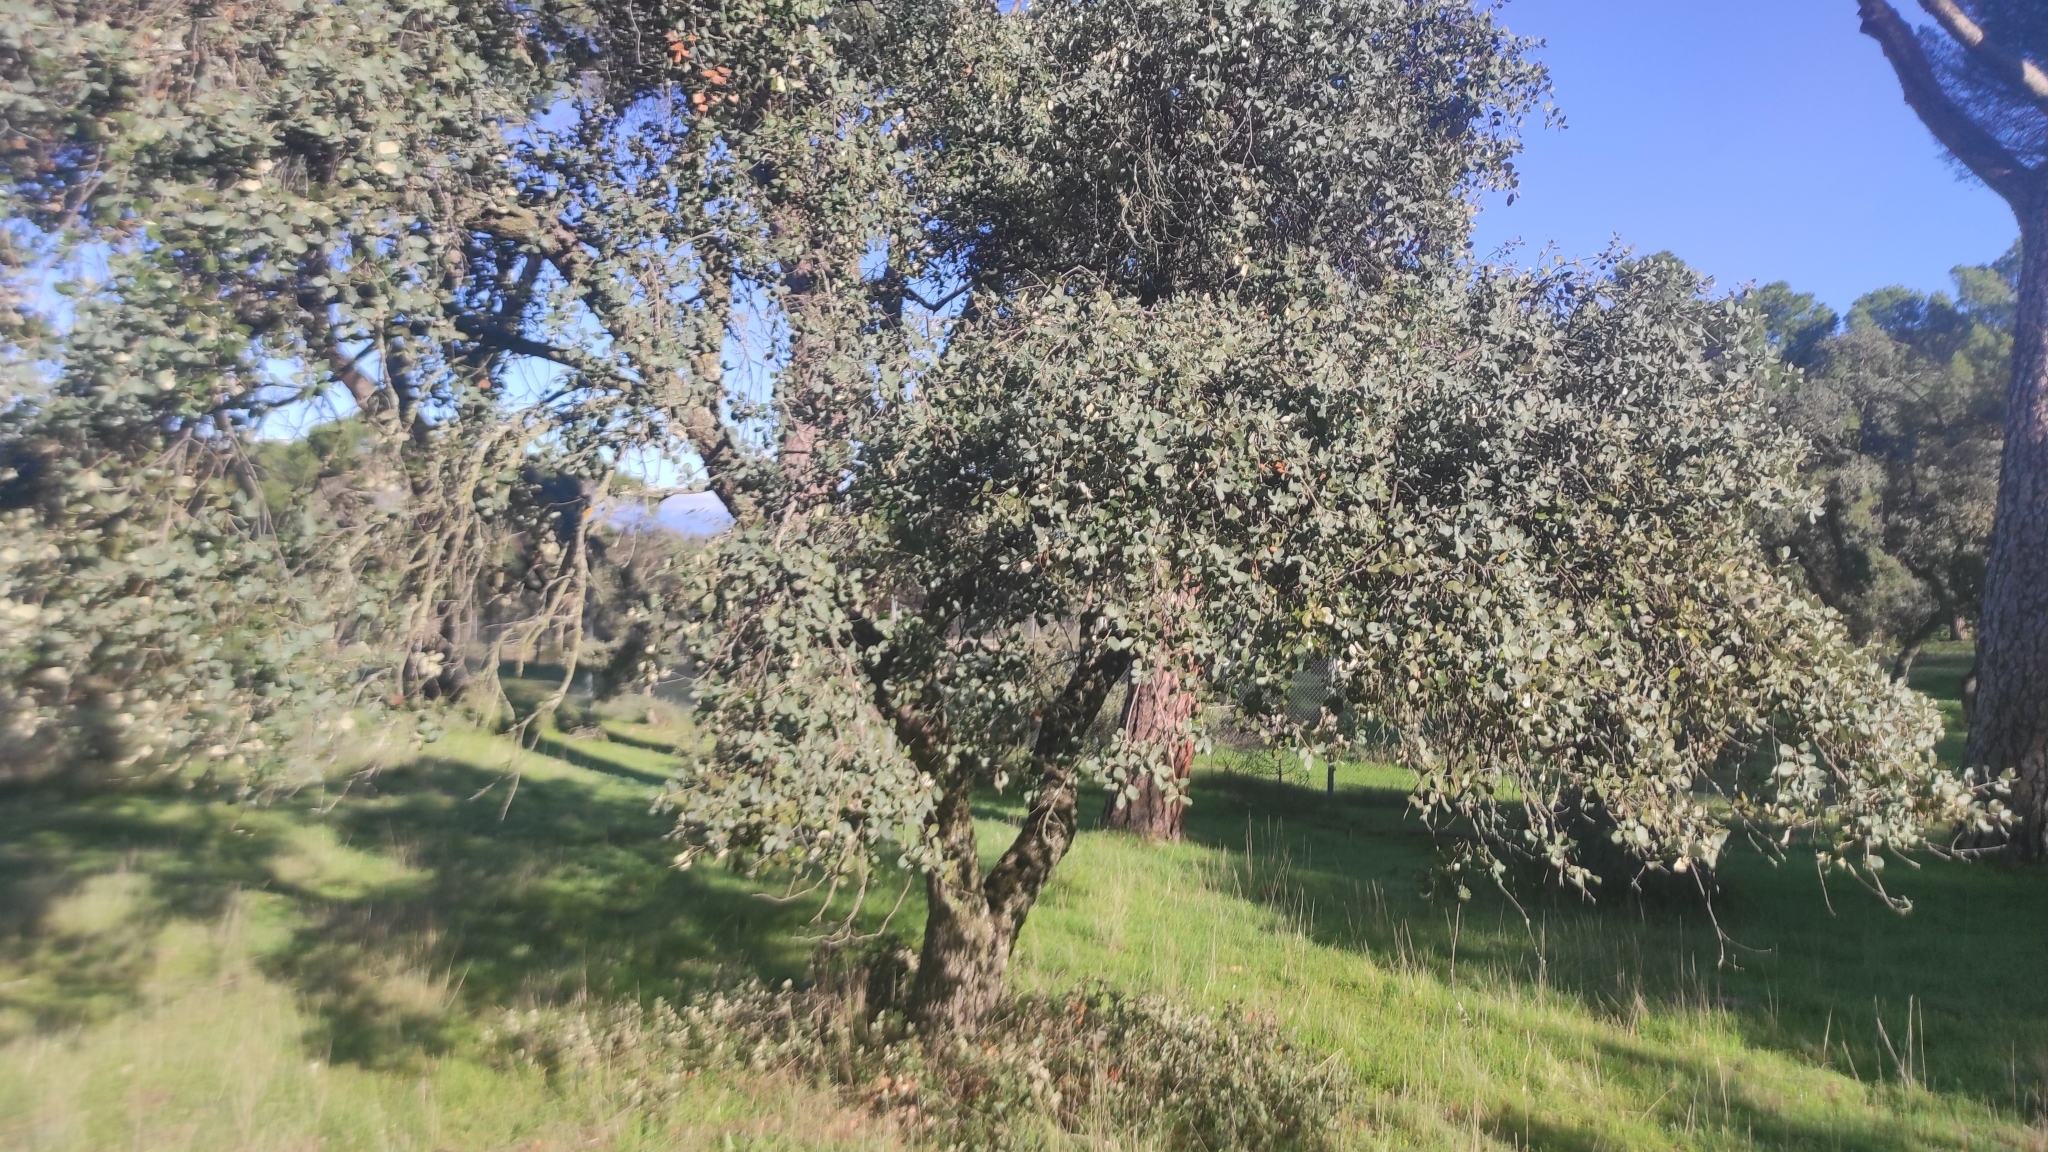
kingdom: Plantae
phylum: Tracheophyta
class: Magnoliopsida
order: Fagales
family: Fagaceae
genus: Quercus
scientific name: Quercus rotundifolia
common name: Holm oak
